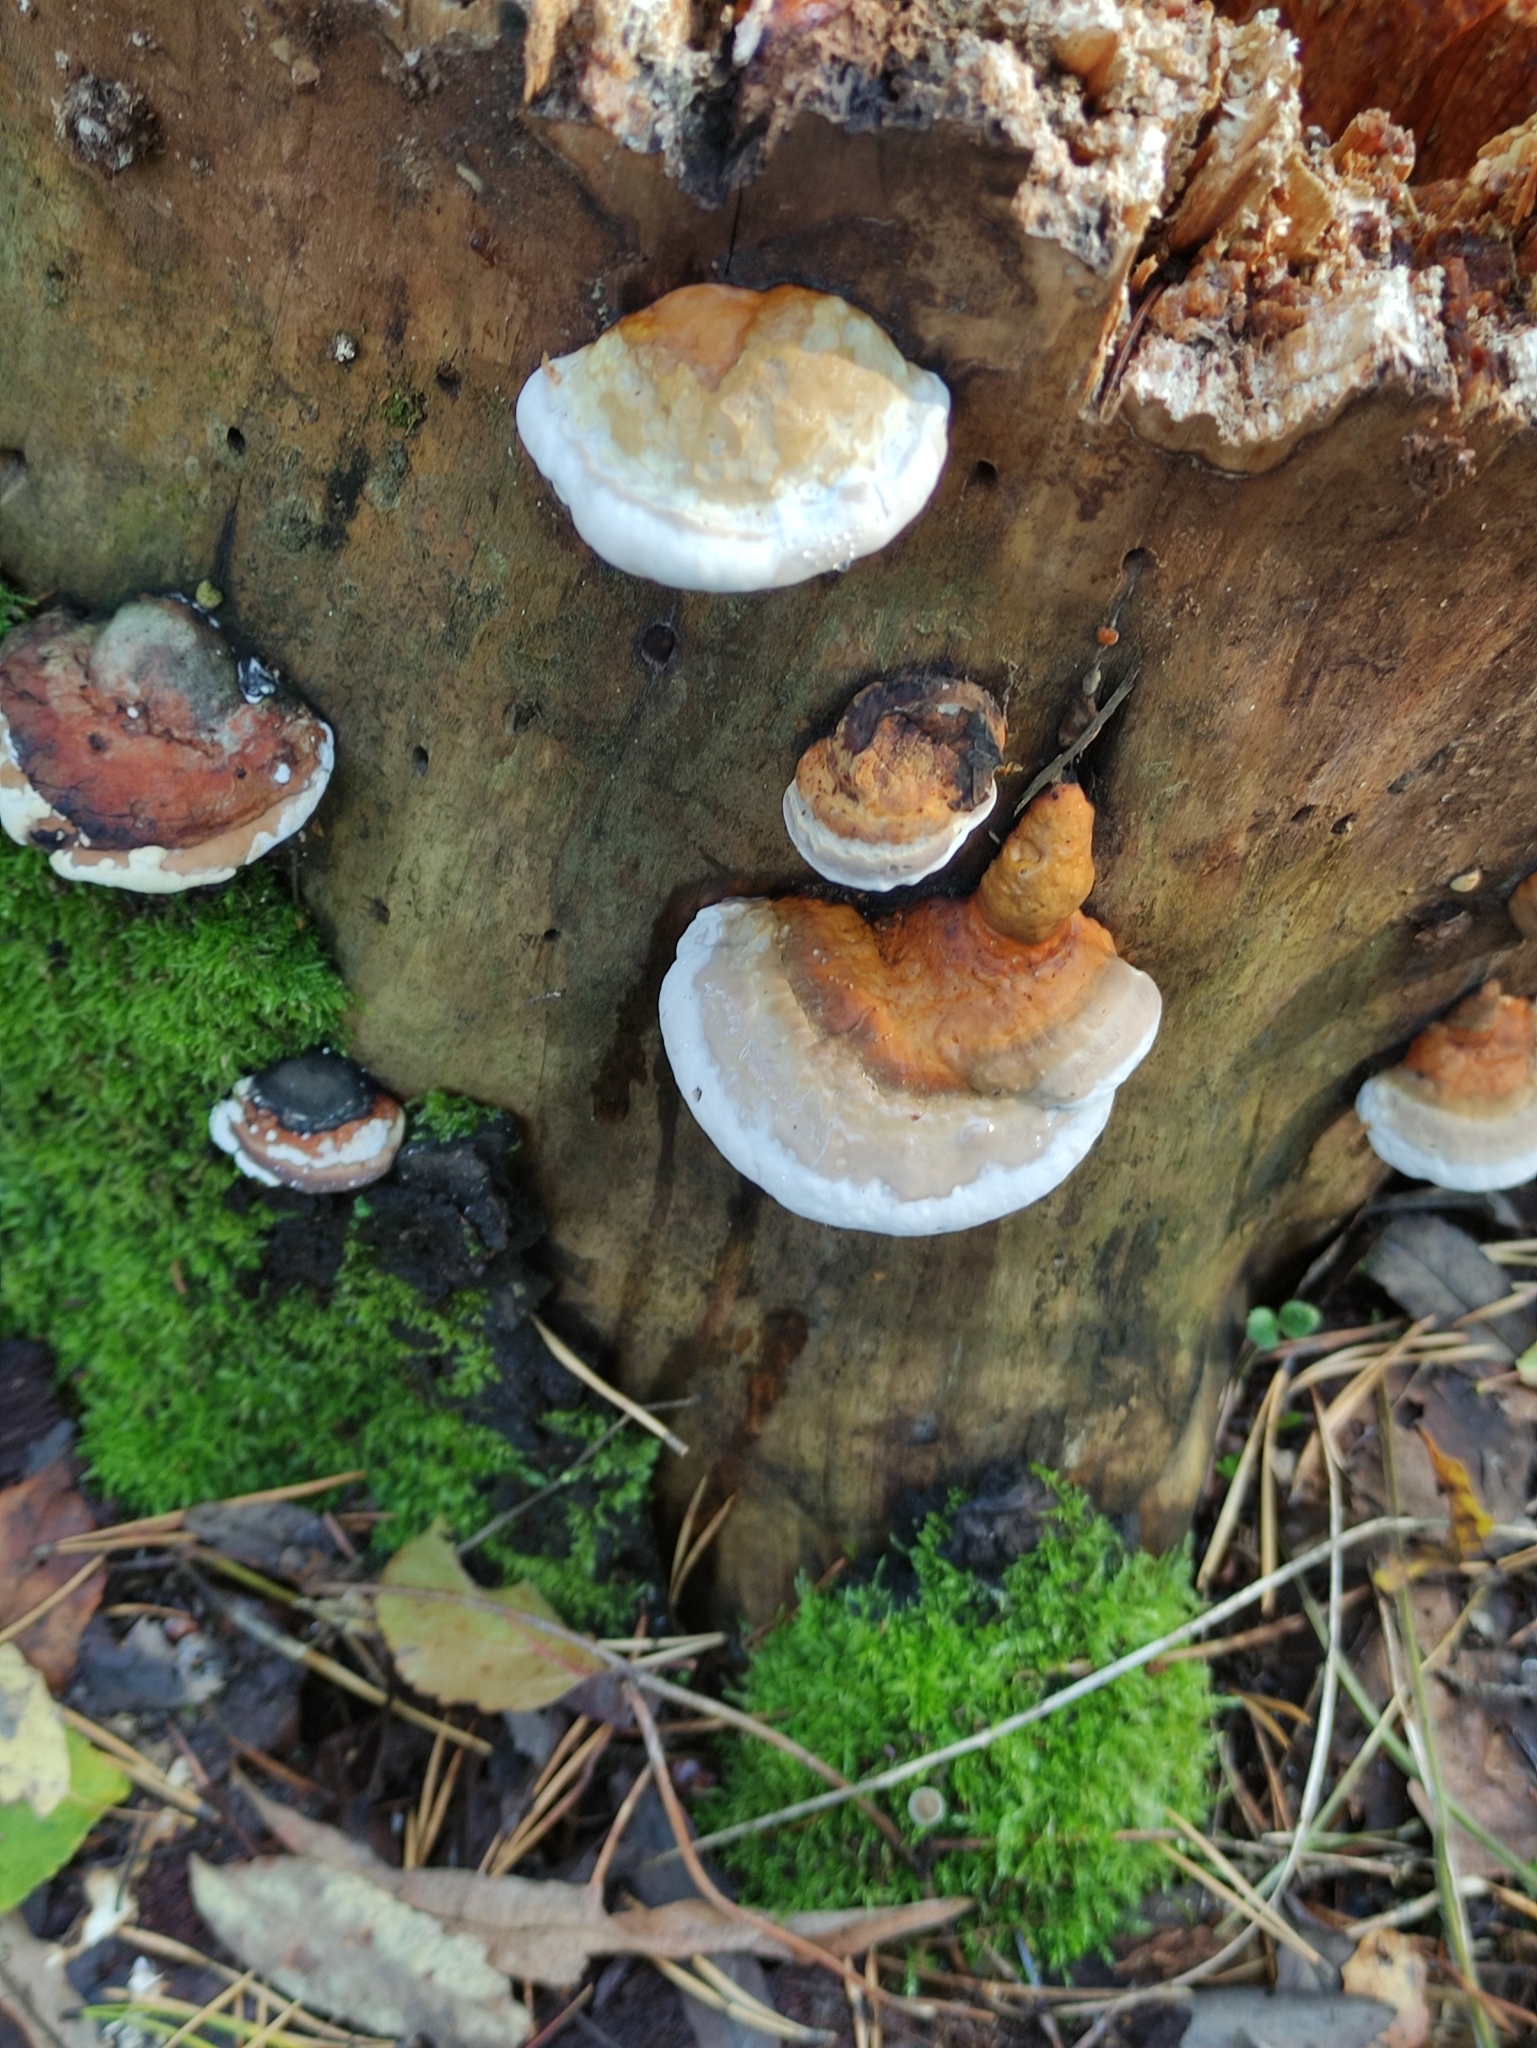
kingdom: Fungi
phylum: Basidiomycota
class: Agaricomycetes
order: Polyporales
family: Fomitopsidaceae
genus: Fomitopsis
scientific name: Fomitopsis pinicola
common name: Red-belted bracket
